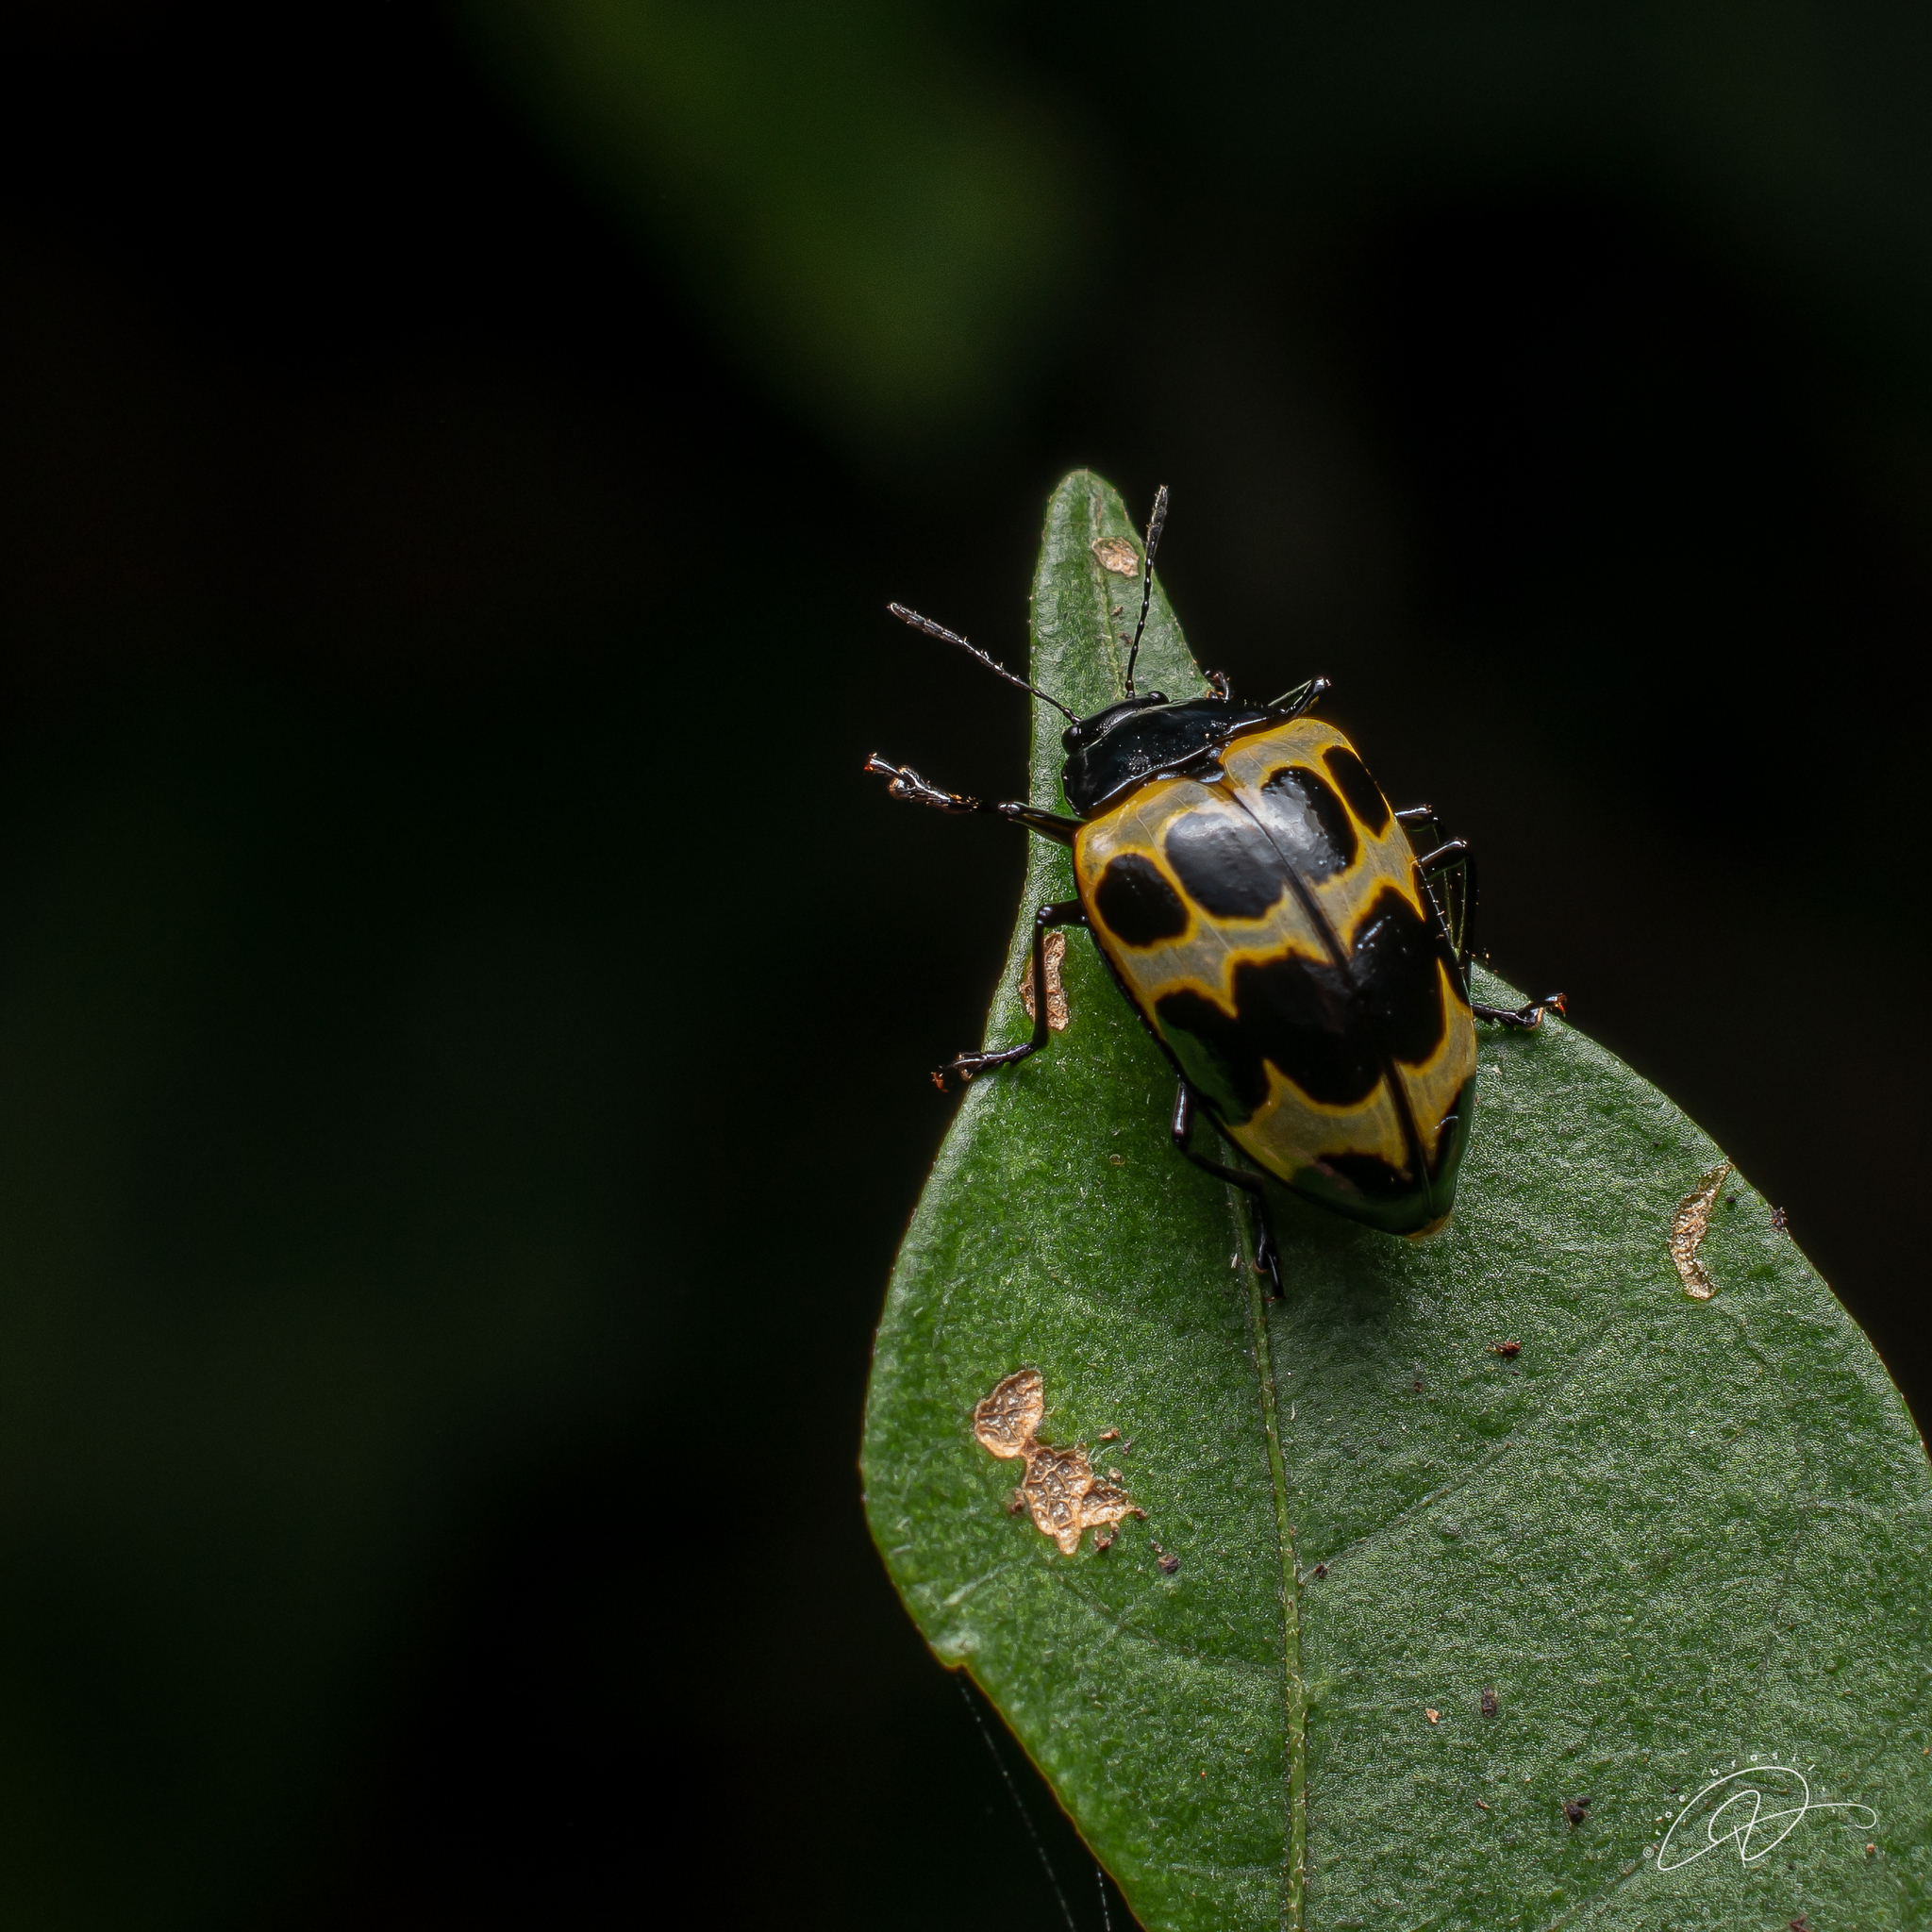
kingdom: Animalia
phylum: Arthropoda
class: Insecta
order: Coleoptera
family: Erotylidae
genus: Oligocorynus
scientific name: Oligocorynus
